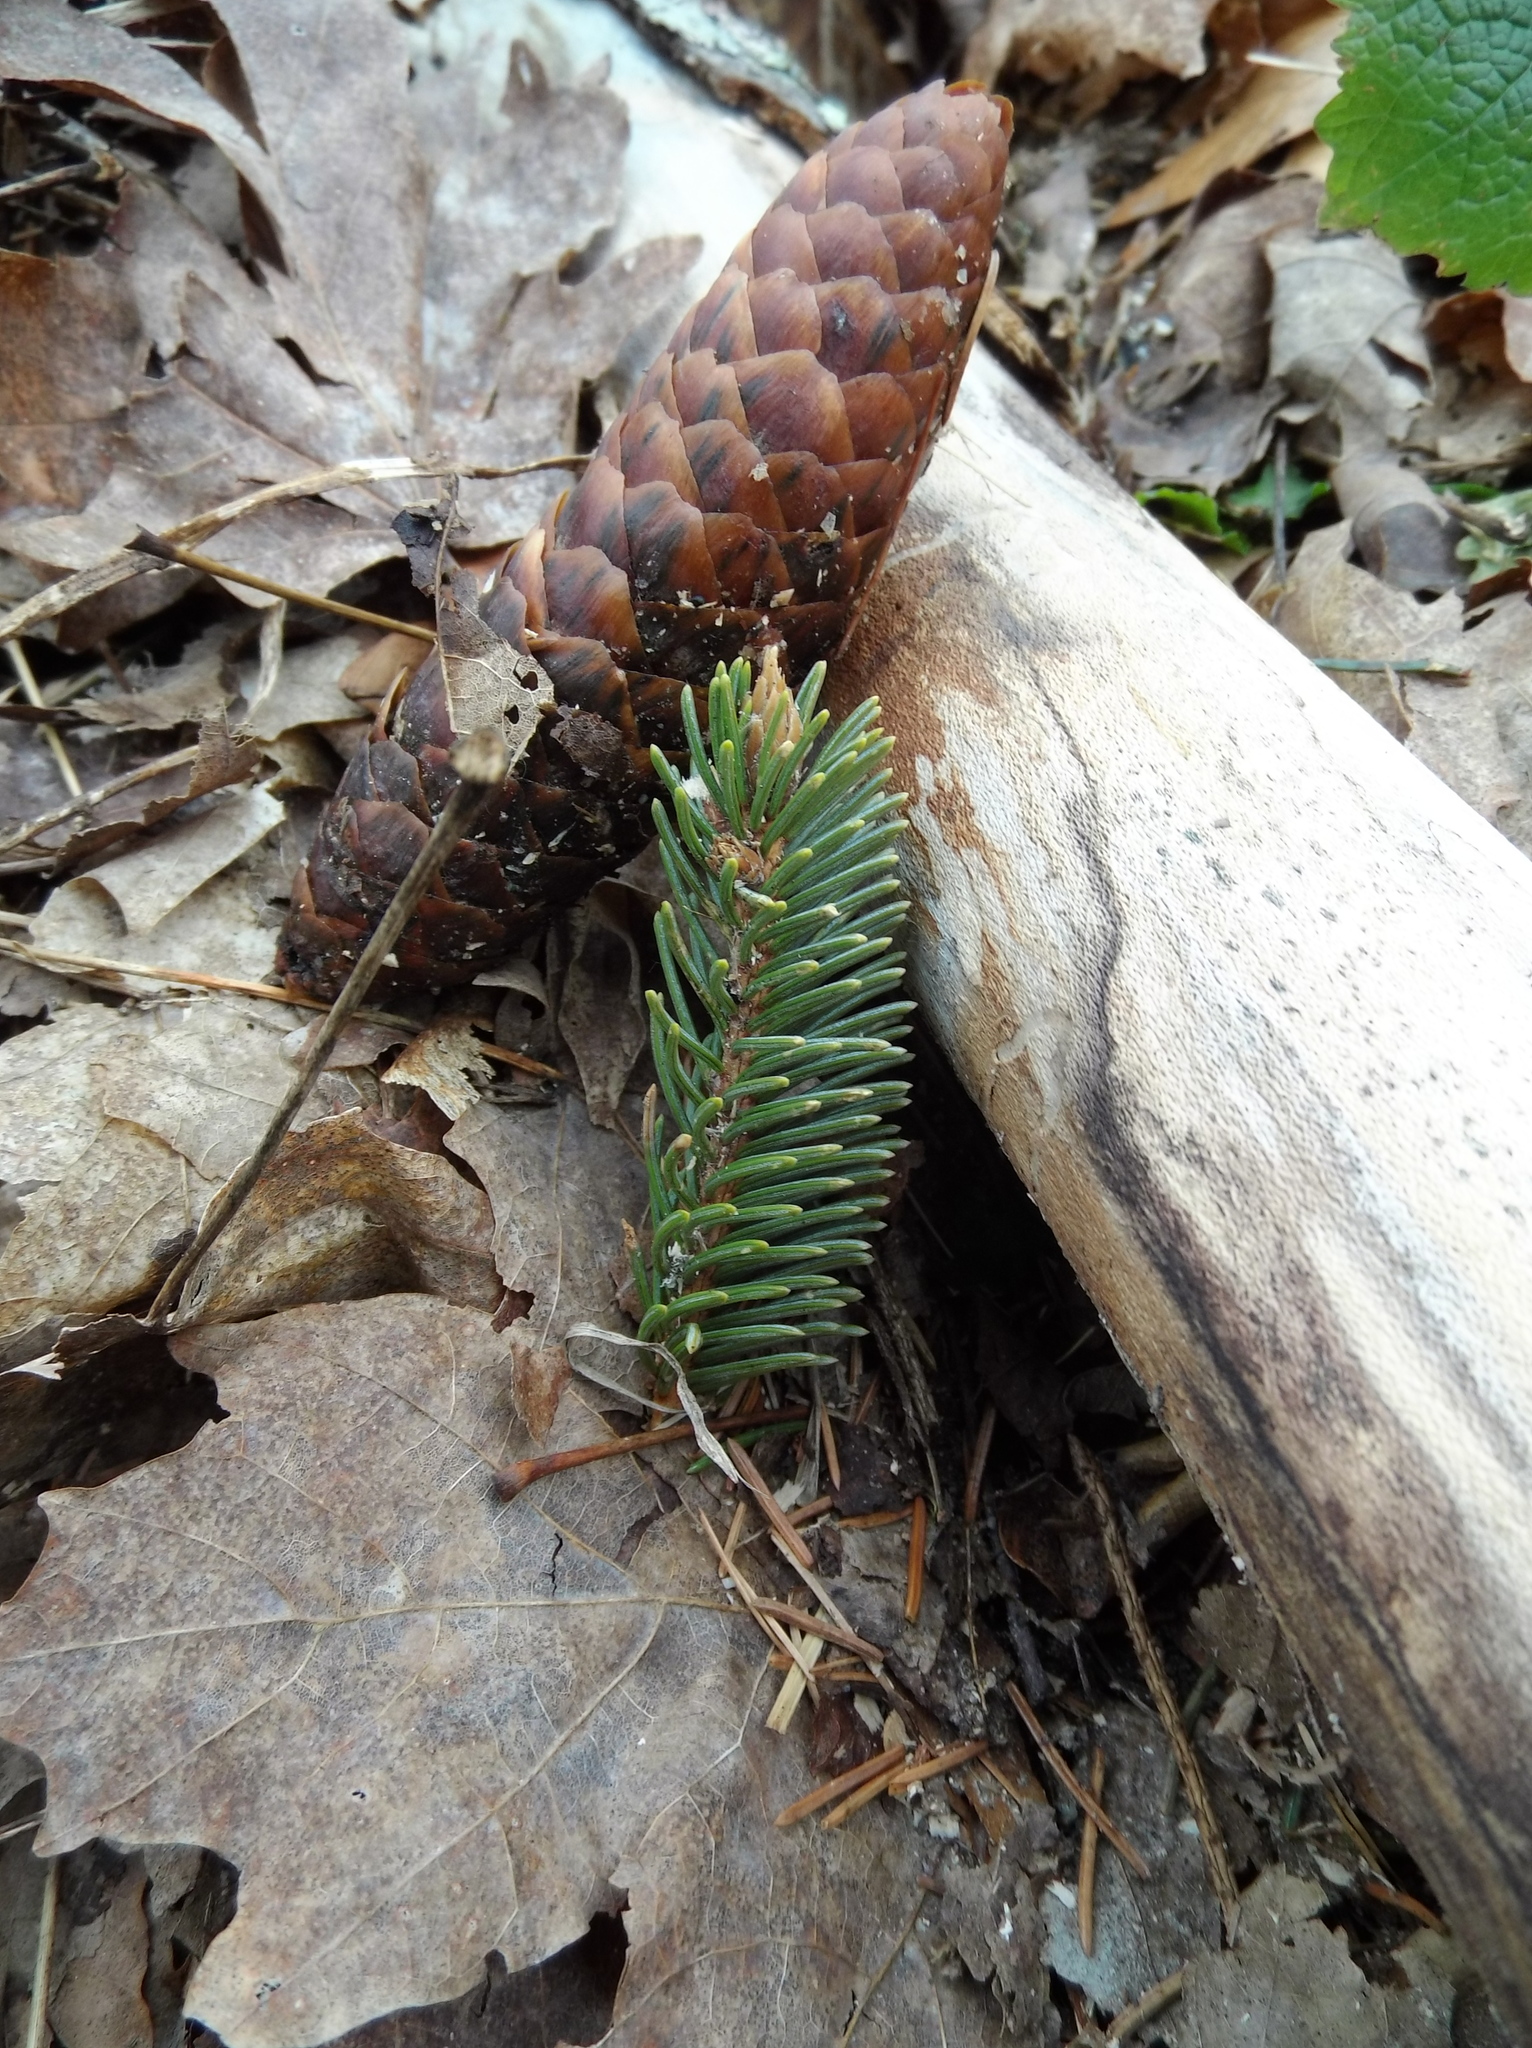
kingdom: Plantae
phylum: Tracheophyta
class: Pinopsida
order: Pinales
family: Pinaceae
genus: Picea
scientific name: Picea abies
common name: Norway spruce
